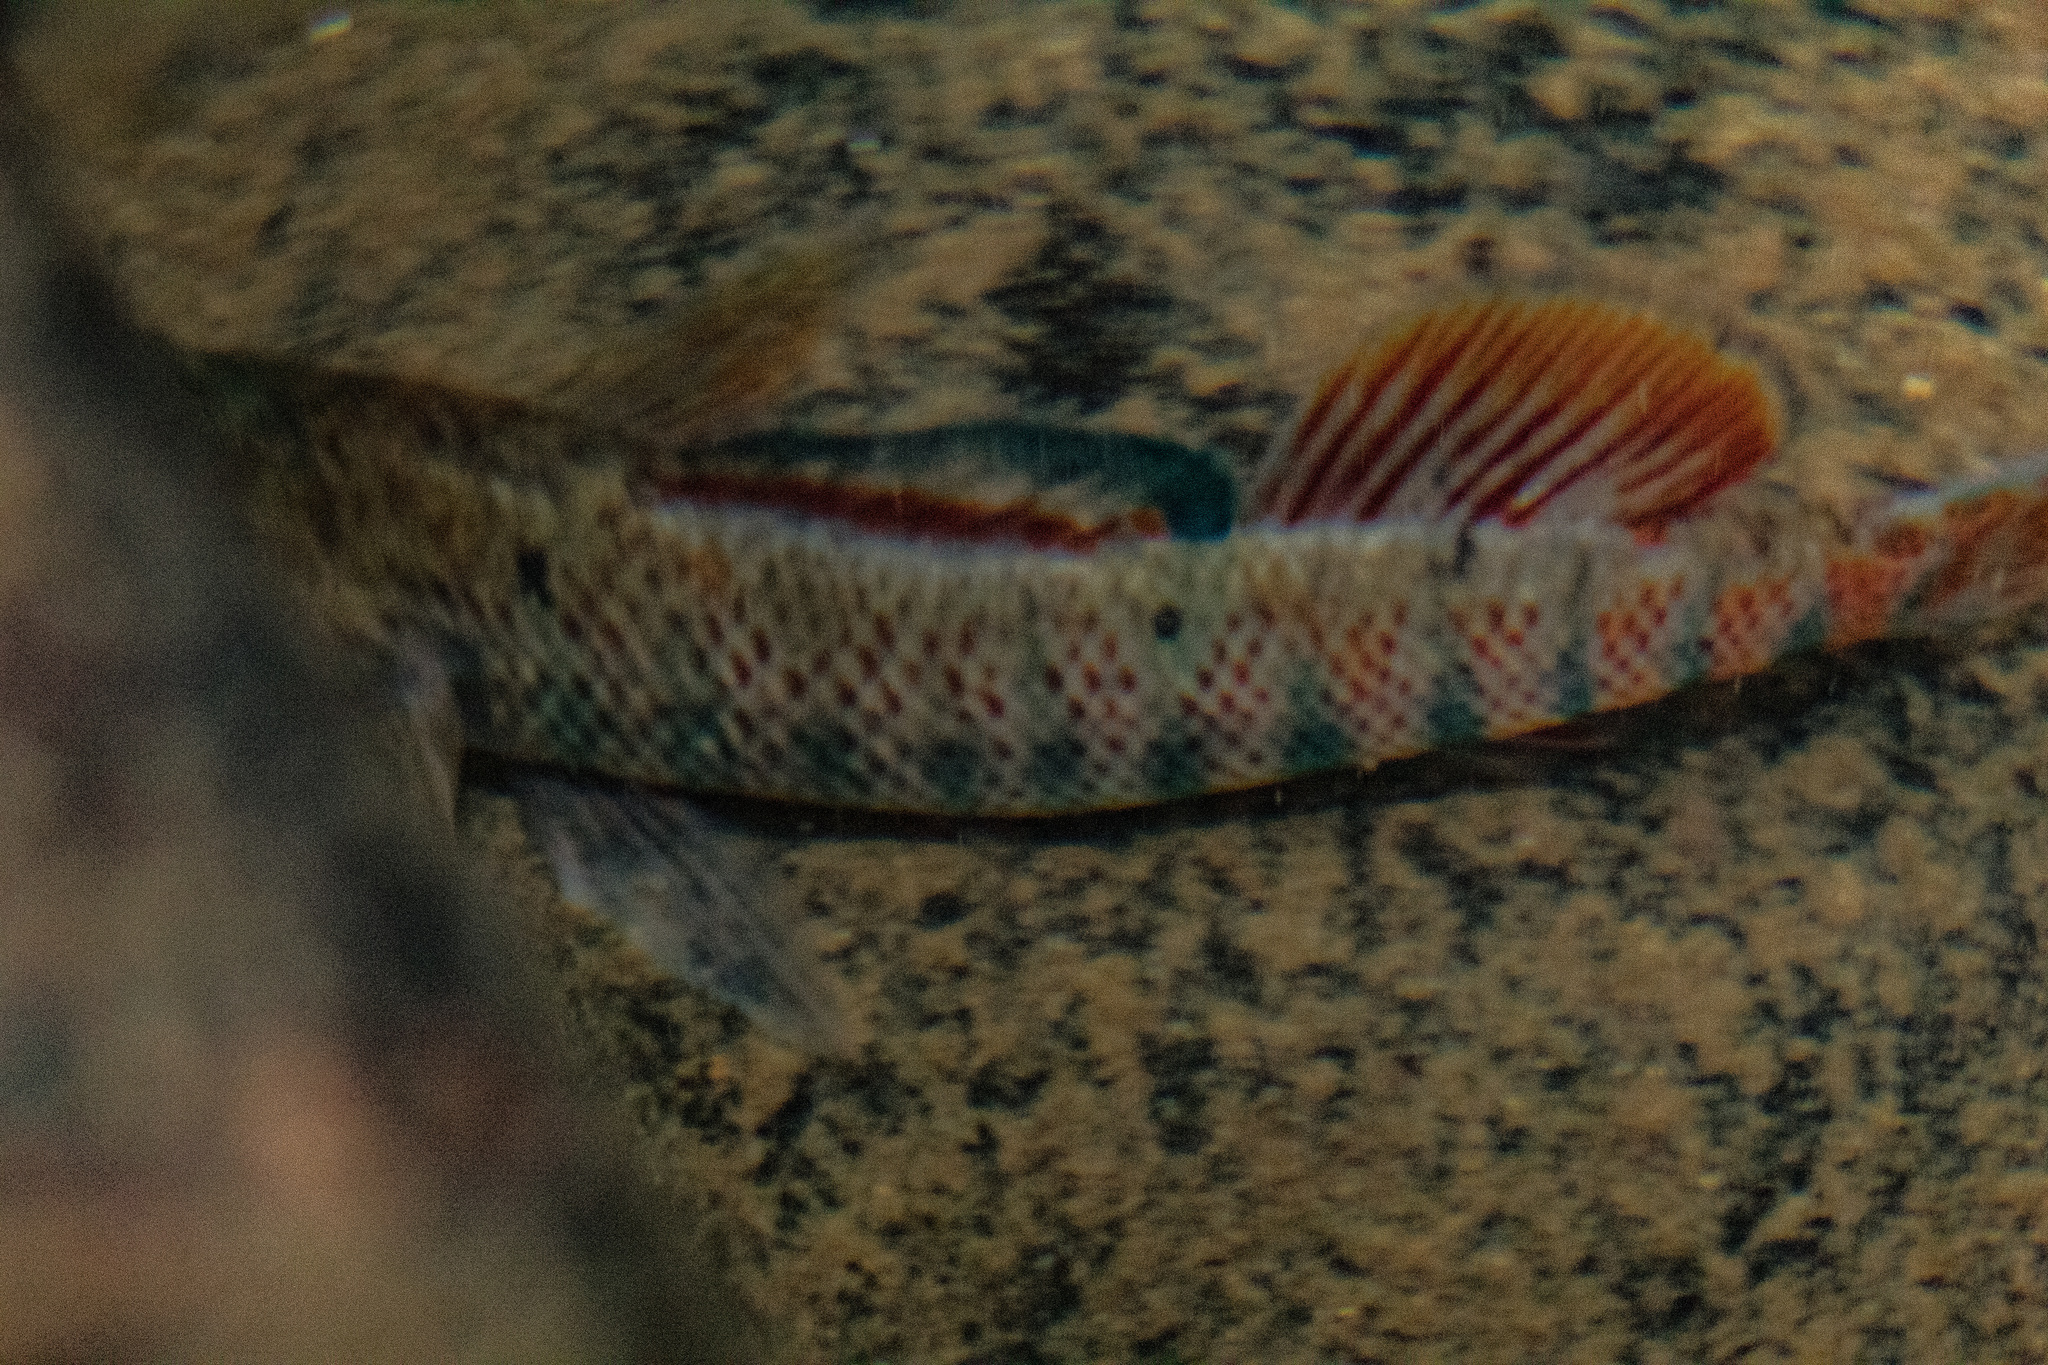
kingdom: Animalia
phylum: Chordata
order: Perciformes
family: Percidae
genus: Etheostoma
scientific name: Etheostoma caeruleum
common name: Rainbow darter
